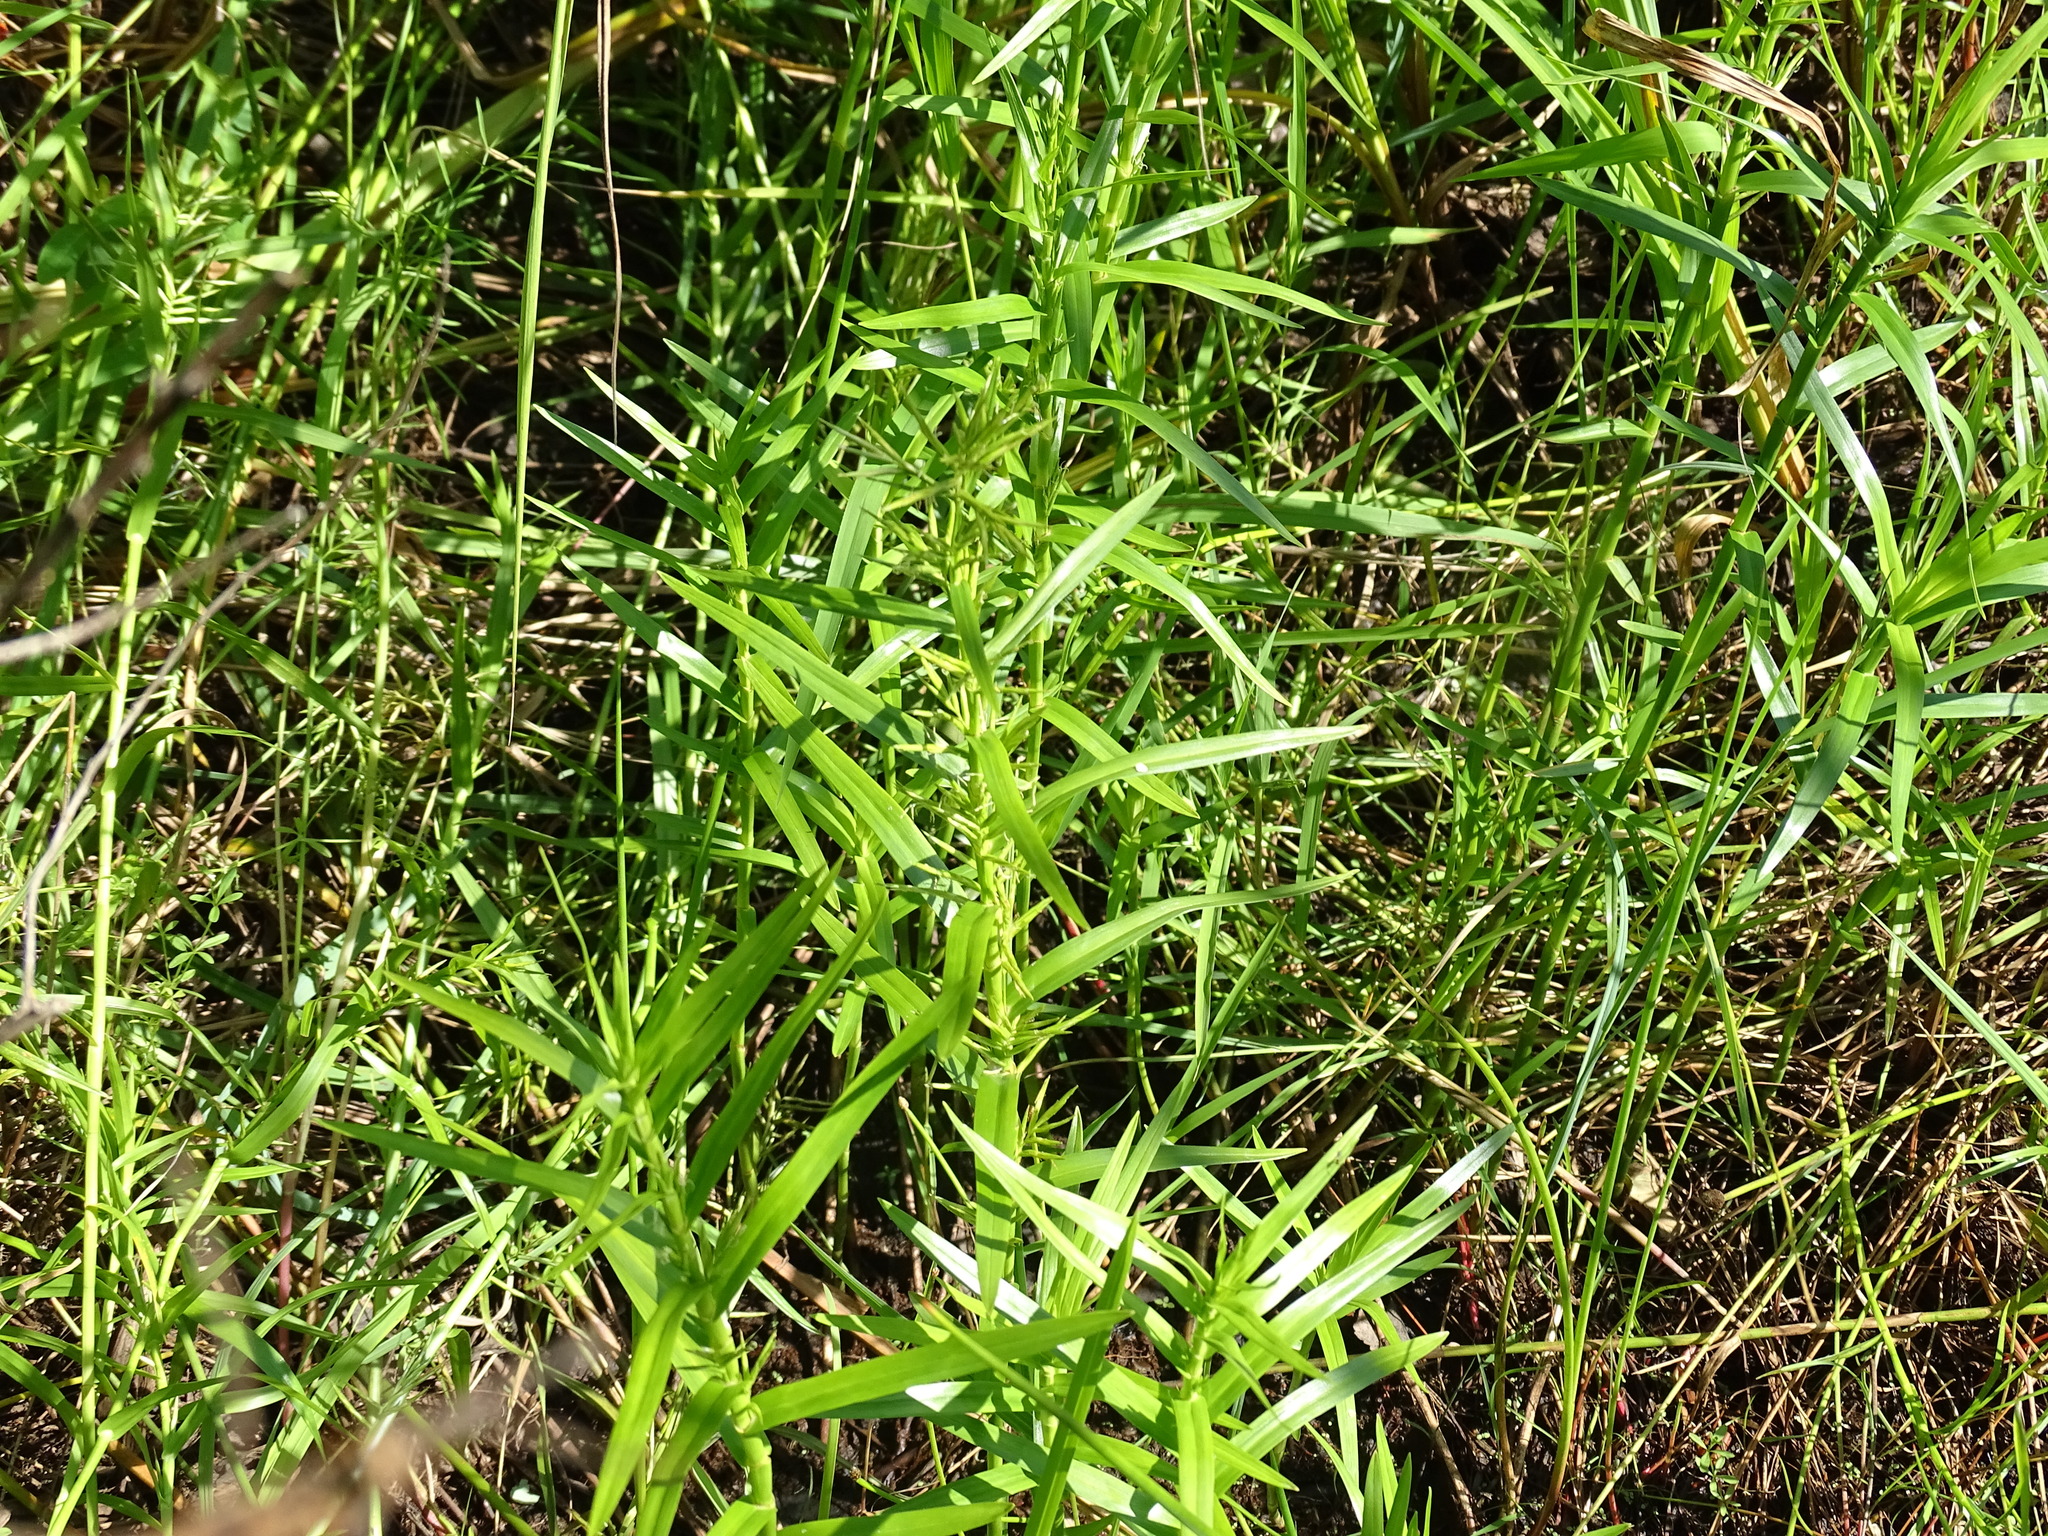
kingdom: Plantae
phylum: Tracheophyta
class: Liliopsida
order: Poales
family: Cyperaceae
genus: Dulichium
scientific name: Dulichium arundinaceum
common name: Three-way sedge
